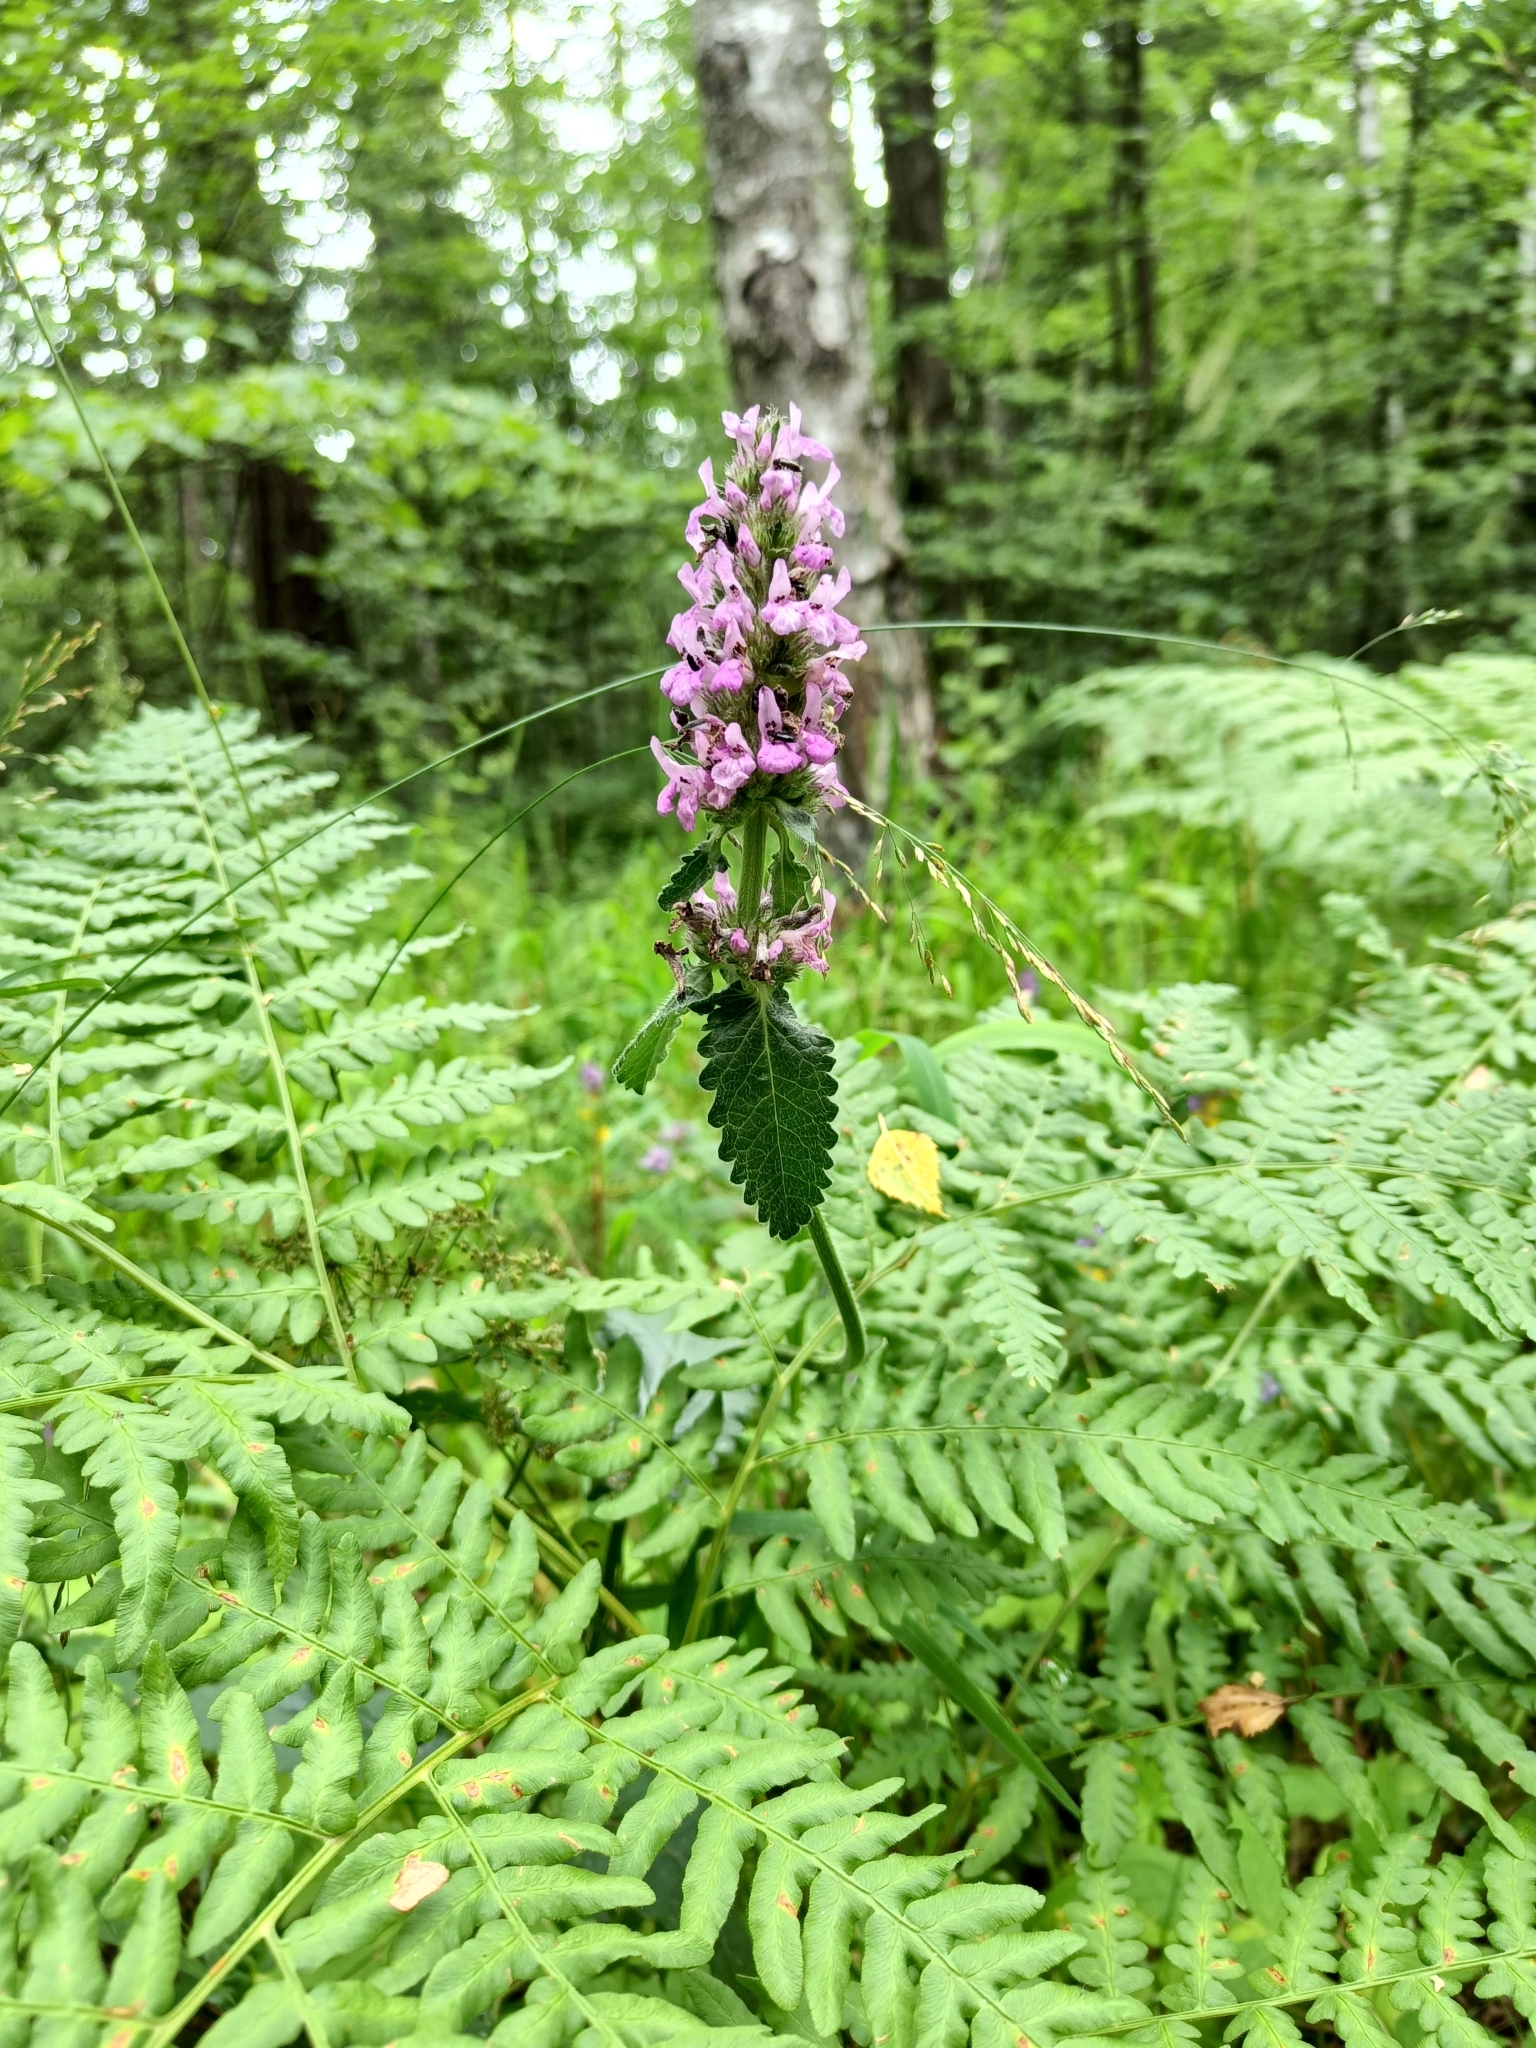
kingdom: Plantae
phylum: Tracheophyta
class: Magnoliopsida
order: Lamiales
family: Lamiaceae
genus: Betonica
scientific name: Betonica officinalis
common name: Bishop's-wort
